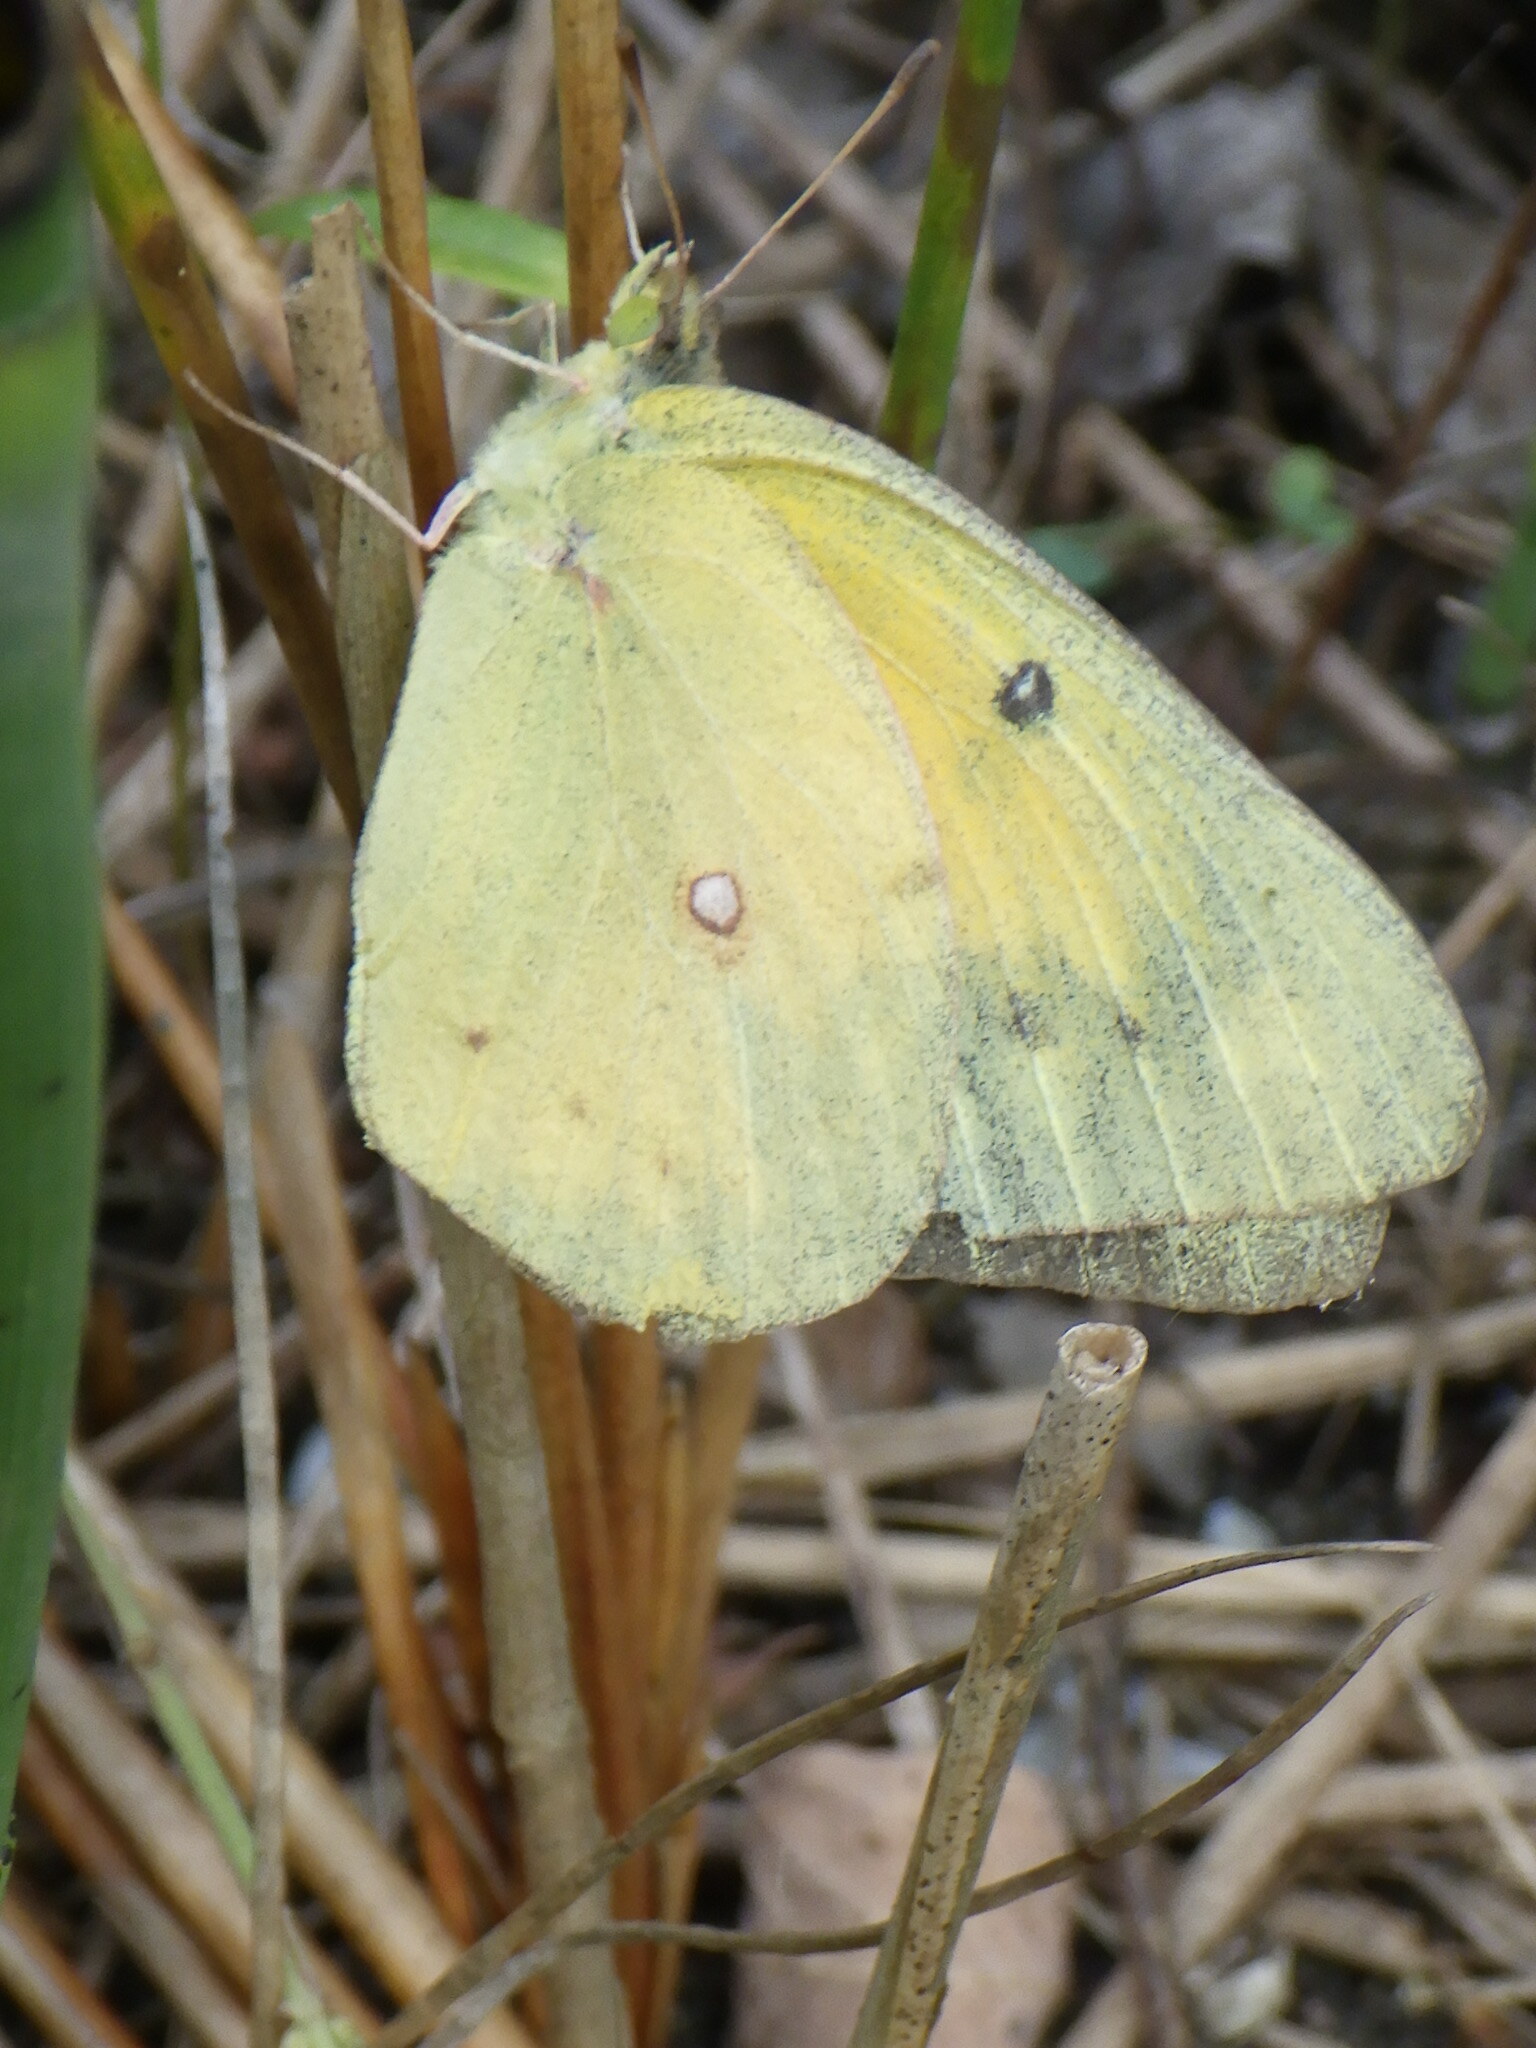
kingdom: Animalia
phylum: Arthropoda
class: Insecta
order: Lepidoptera
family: Pieridae
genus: Colias
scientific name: Colias eurytheme
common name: Alfalfa butterfly
